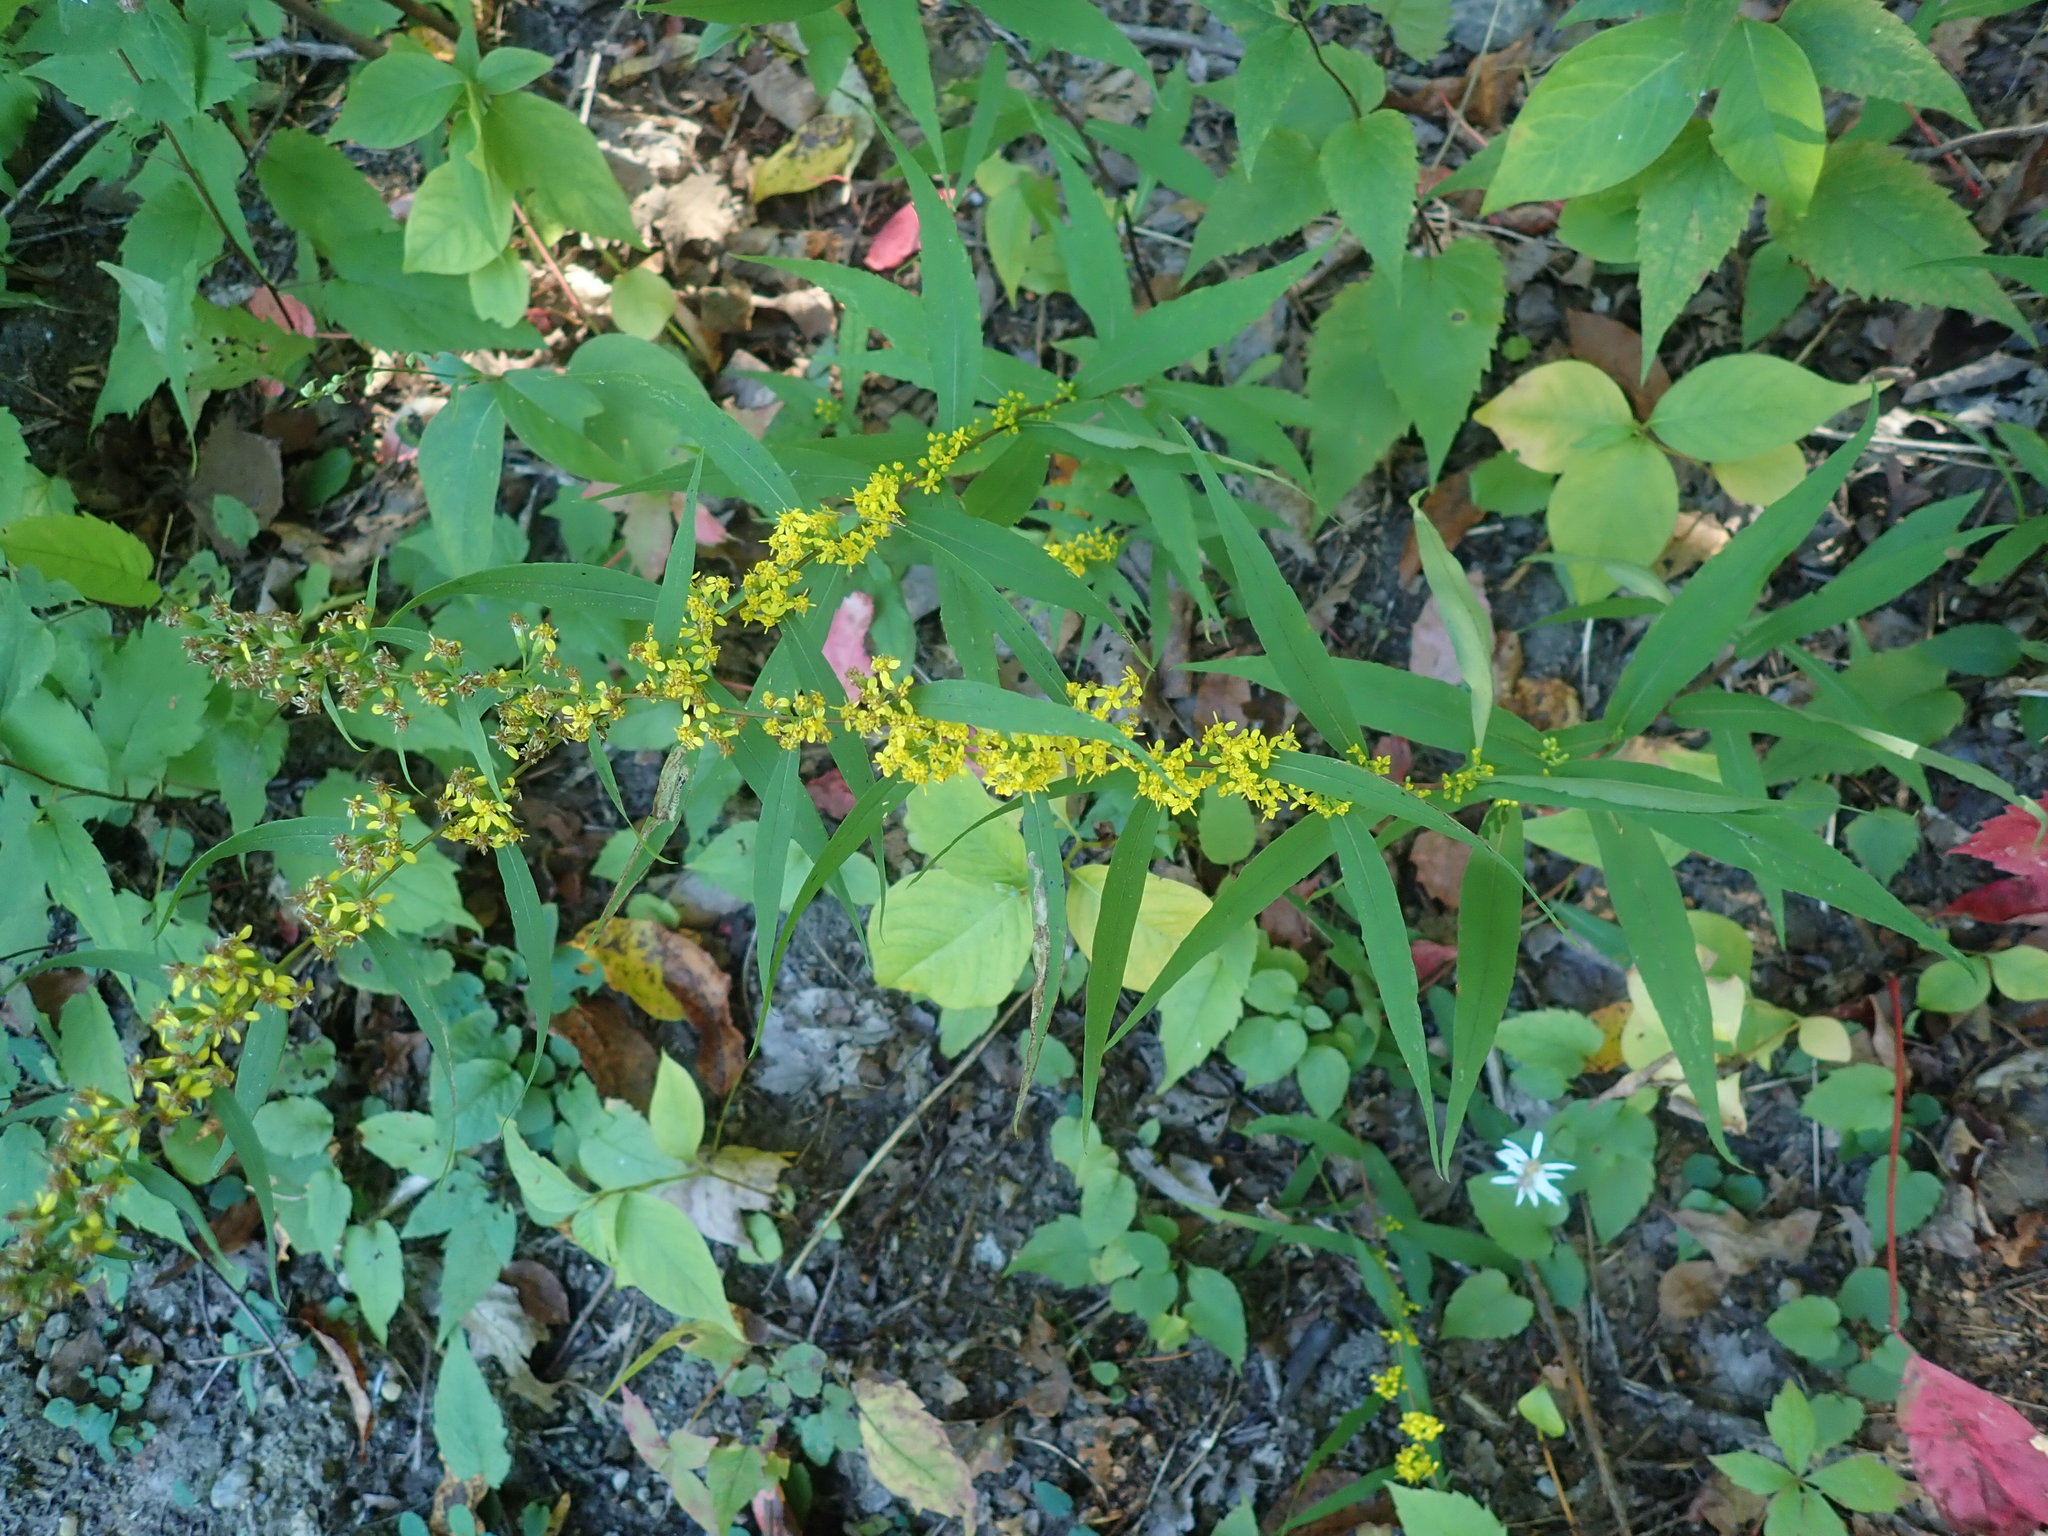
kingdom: Plantae
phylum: Tracheophyta
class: Magnoliopsida
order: Asterales
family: Asteraceae
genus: Solidago
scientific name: Solidago caesia
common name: Woodland goldenrod
